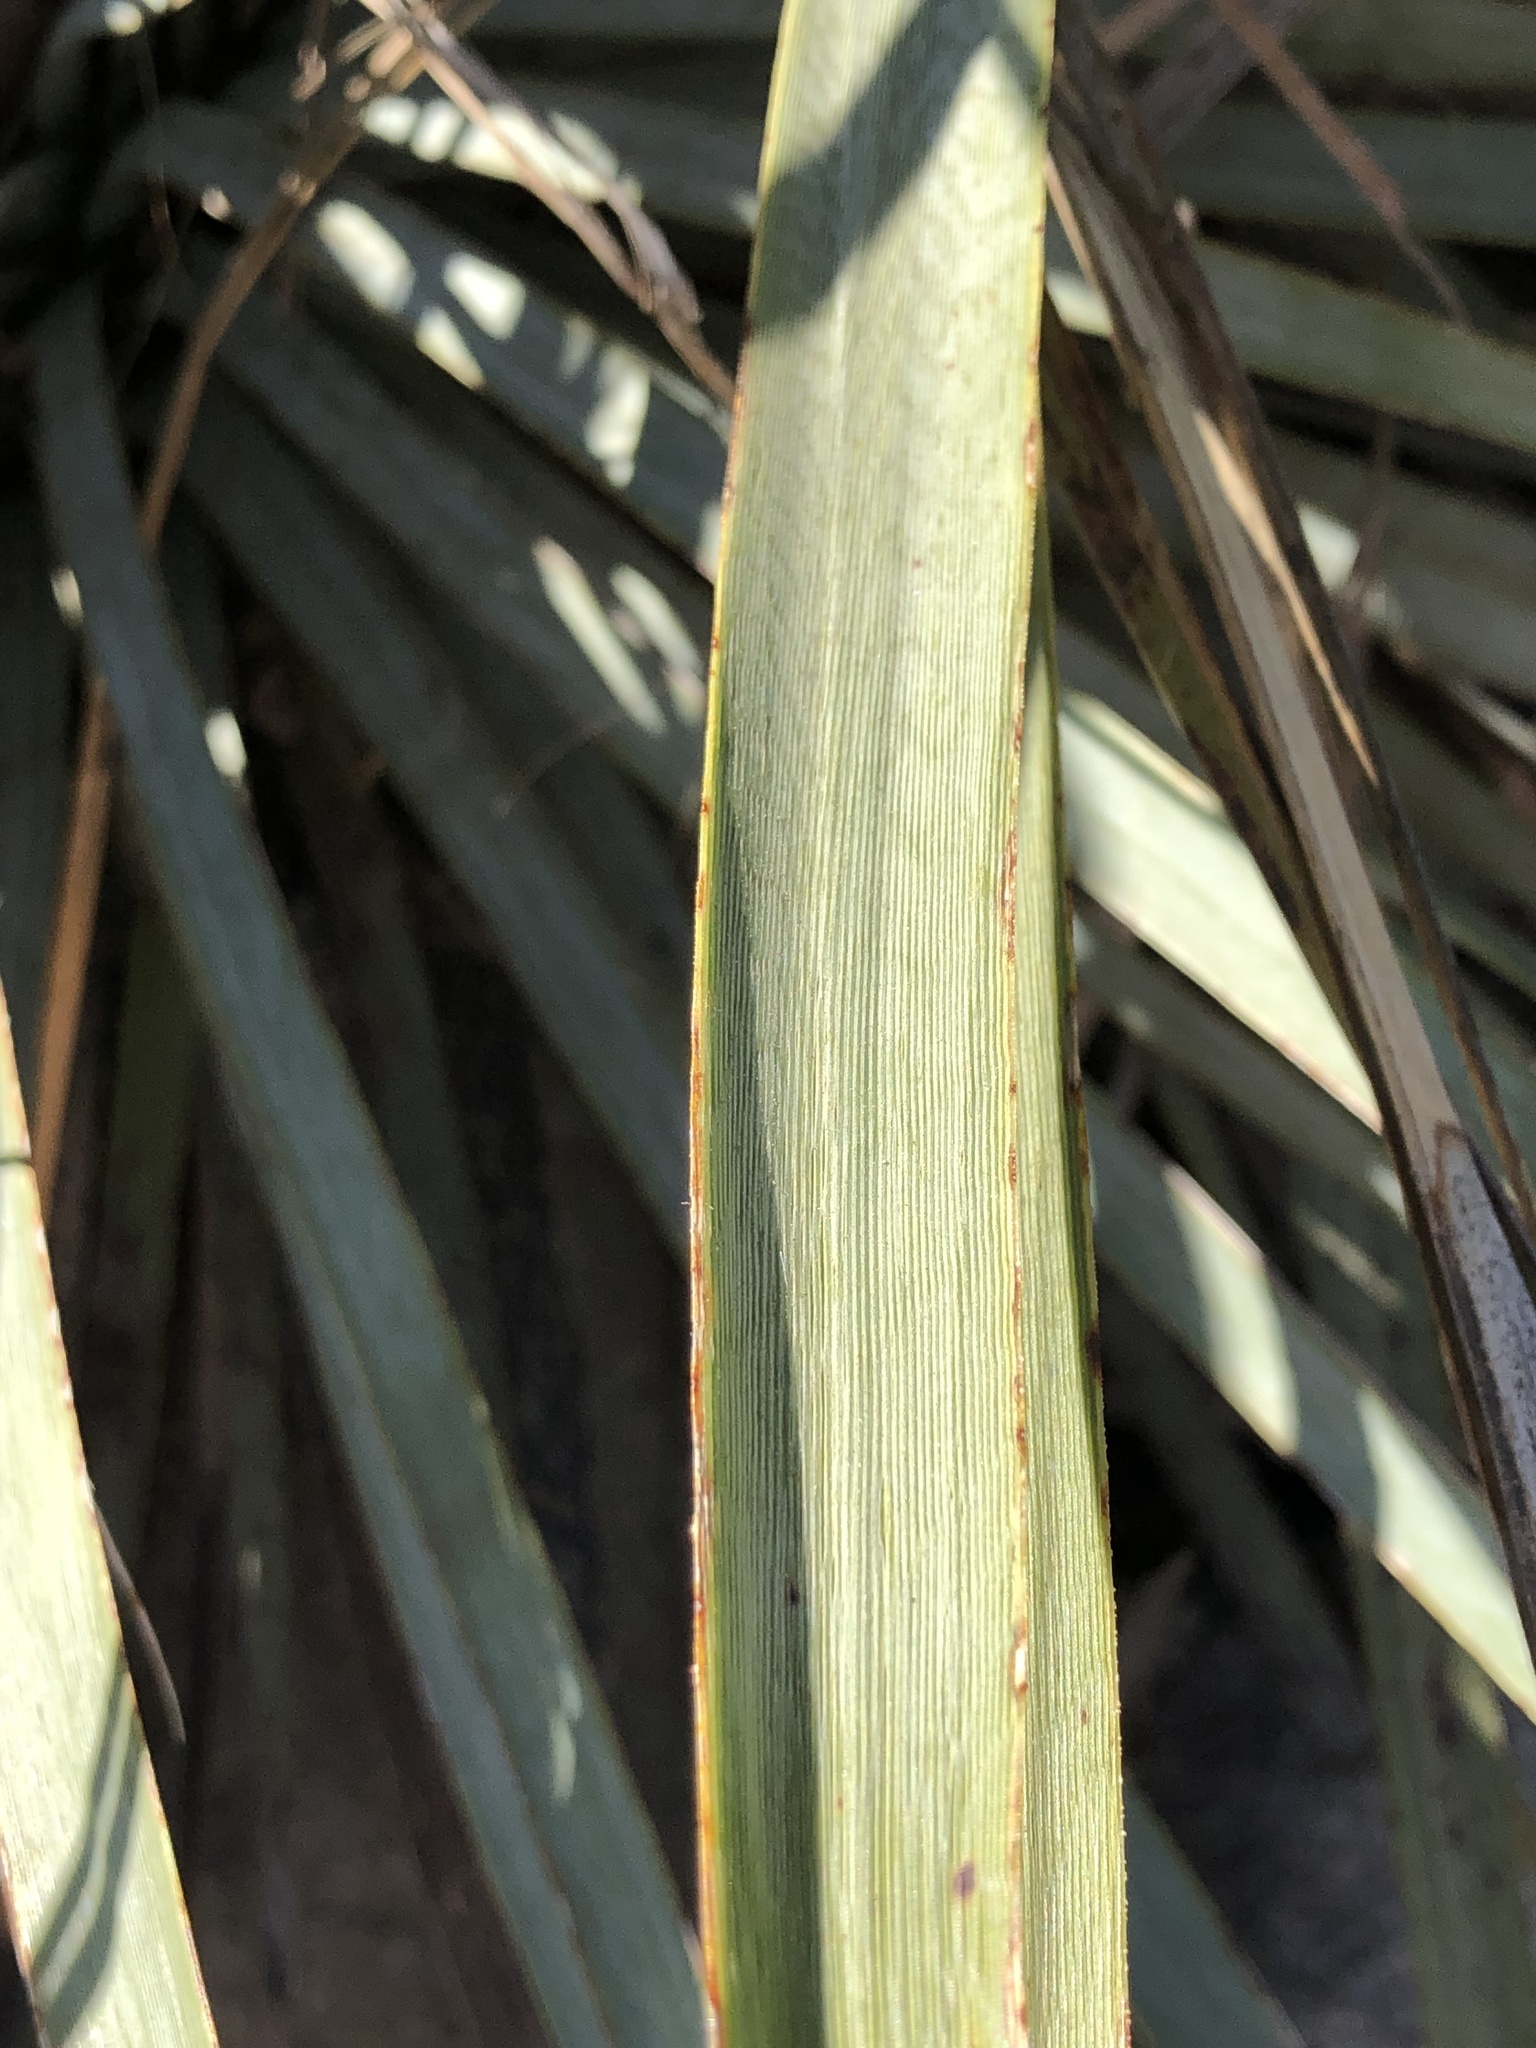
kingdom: Plantae
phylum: Tracheophyta
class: Liliopsida
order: Asparagales
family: Asparagaceae
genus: Hesperoyucca
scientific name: Hesperoyucca whipplei
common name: Our lord's-candle
